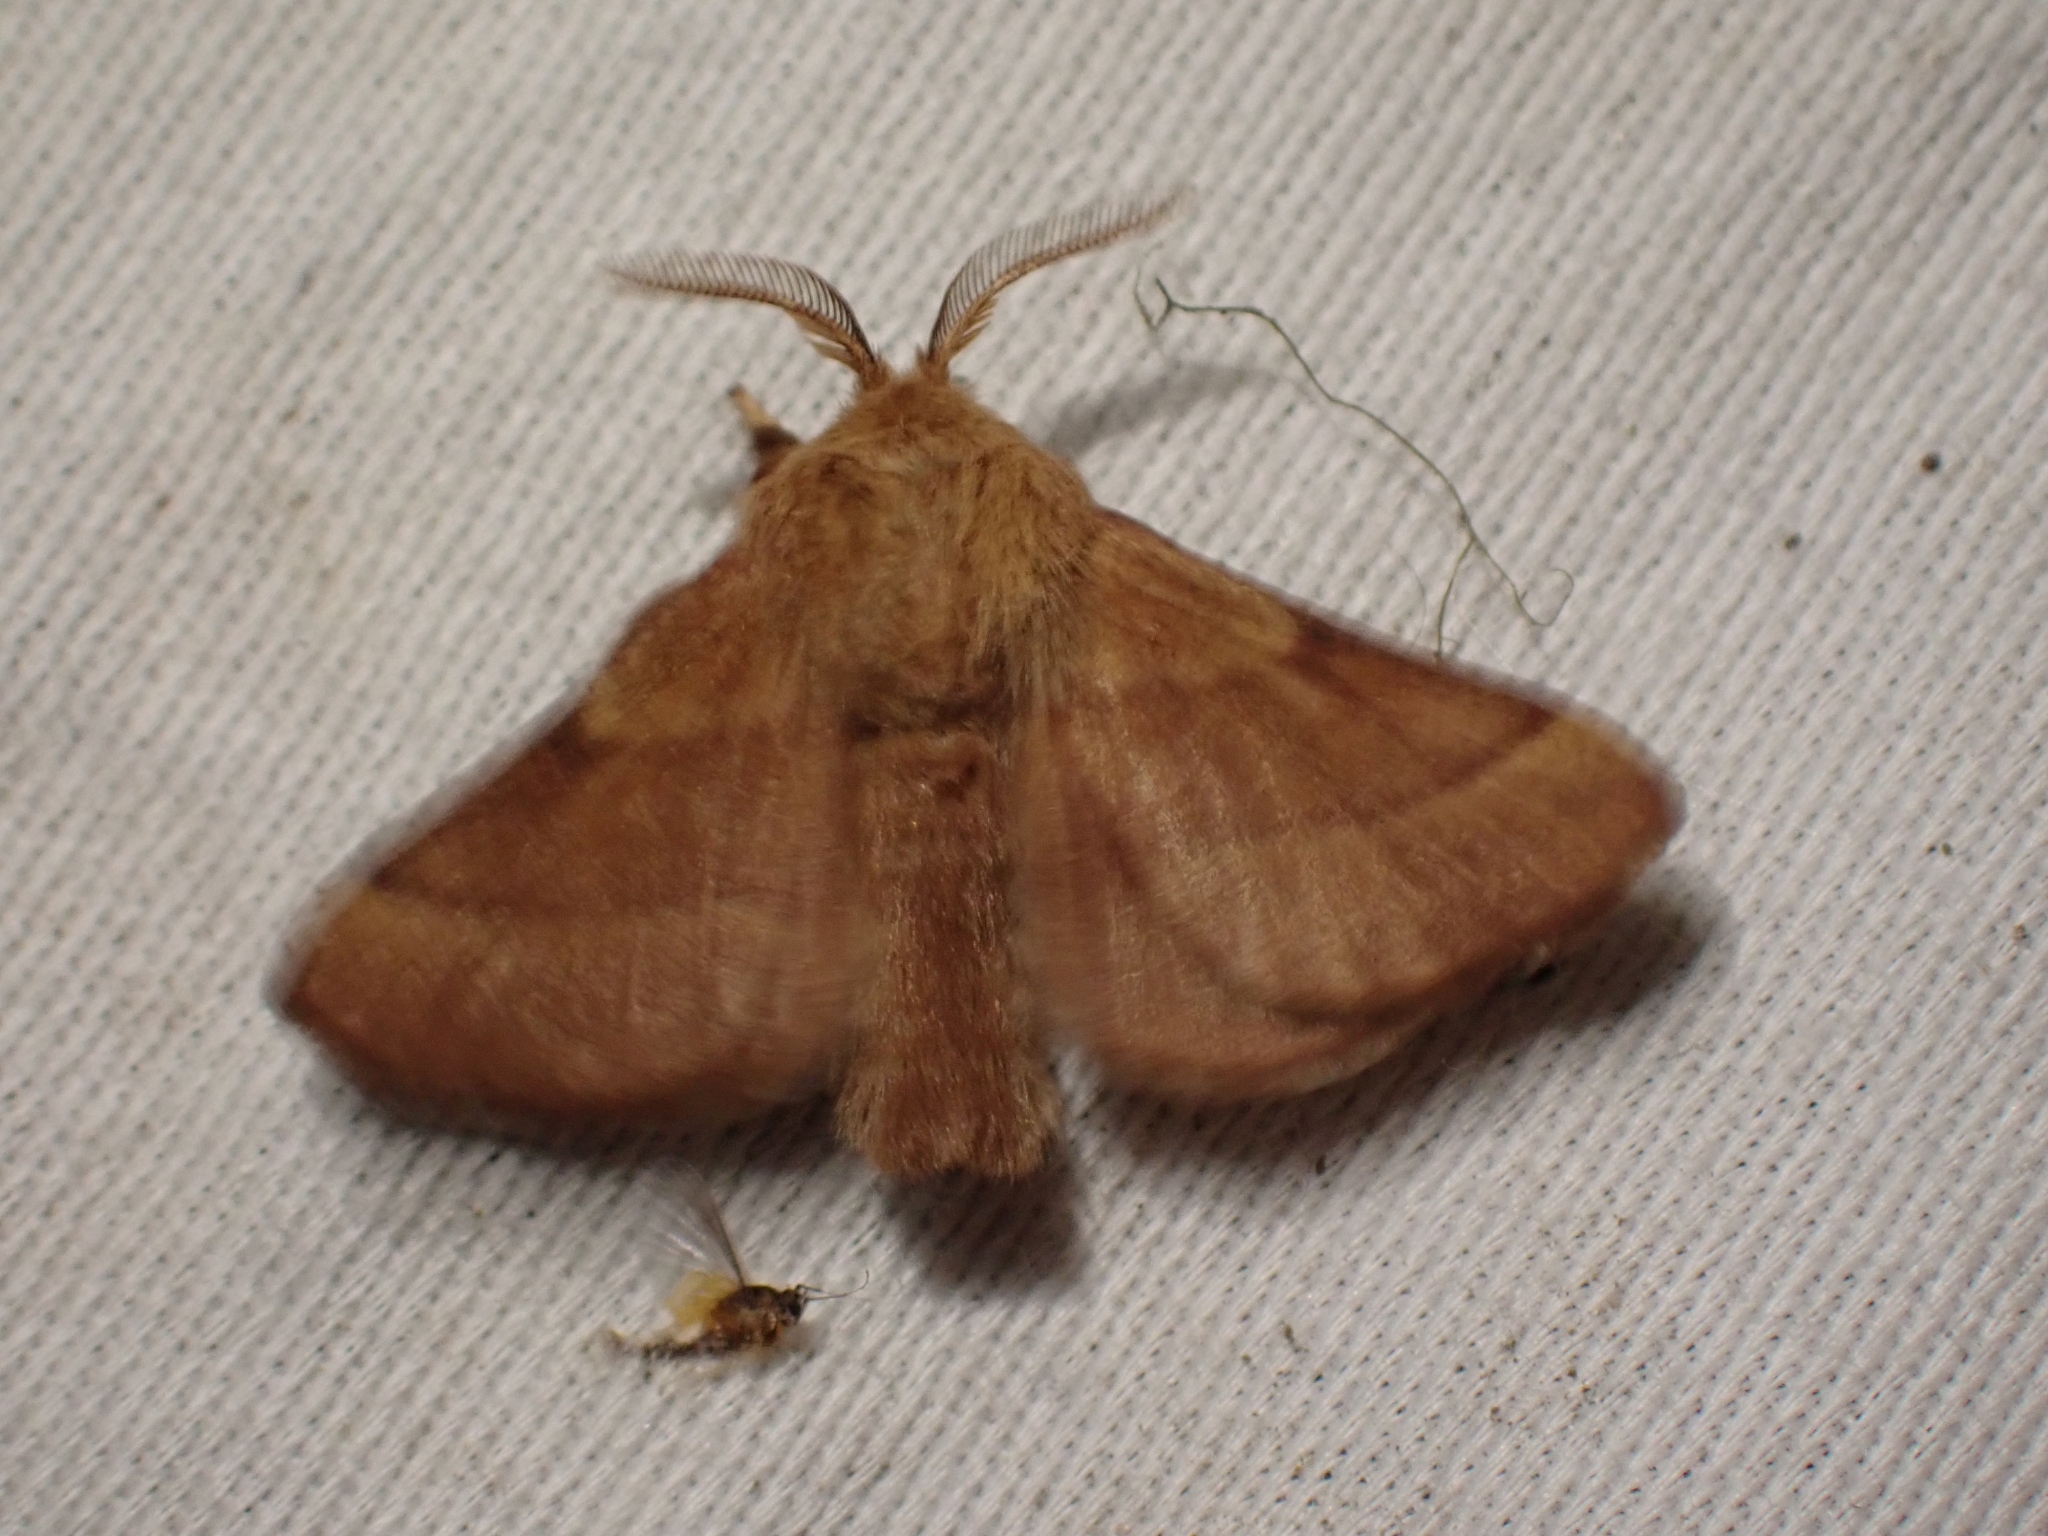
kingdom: Animalia
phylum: Arthropoda
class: Insecta
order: Lepidoptera
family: Lasiocampidae
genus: Malacosoma
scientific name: Malacosoma disstria
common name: Forest tent caterpillar
